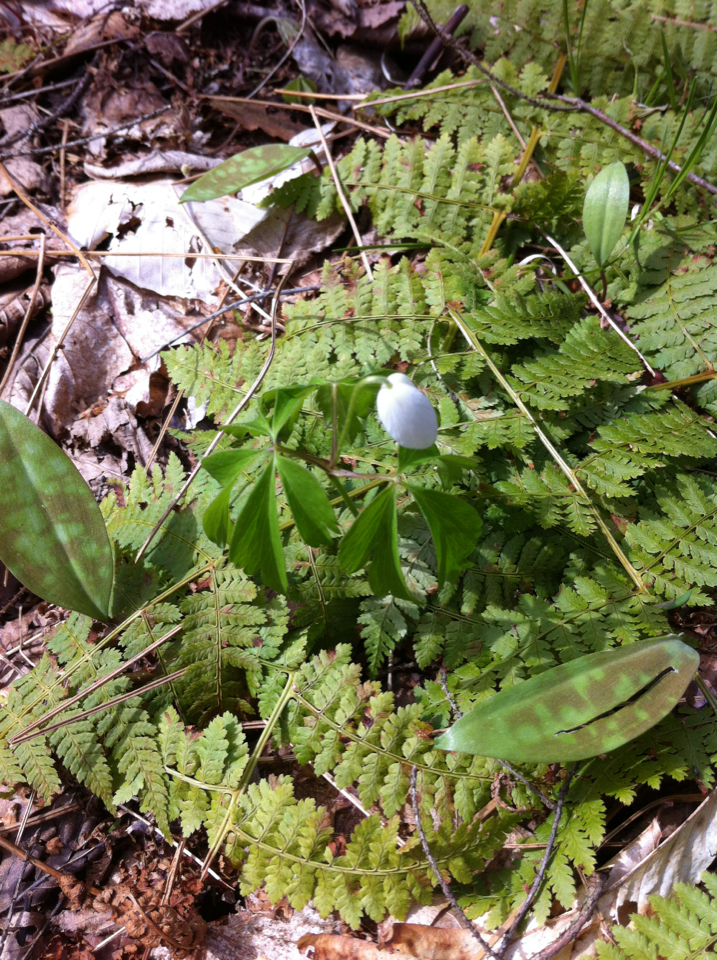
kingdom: Plantae
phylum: Tracheophyta
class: Magnoliopsida
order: Ranunculales
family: Ranunculaceae
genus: Anemone
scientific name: Anemone quinquefolia
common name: Wood anemone
